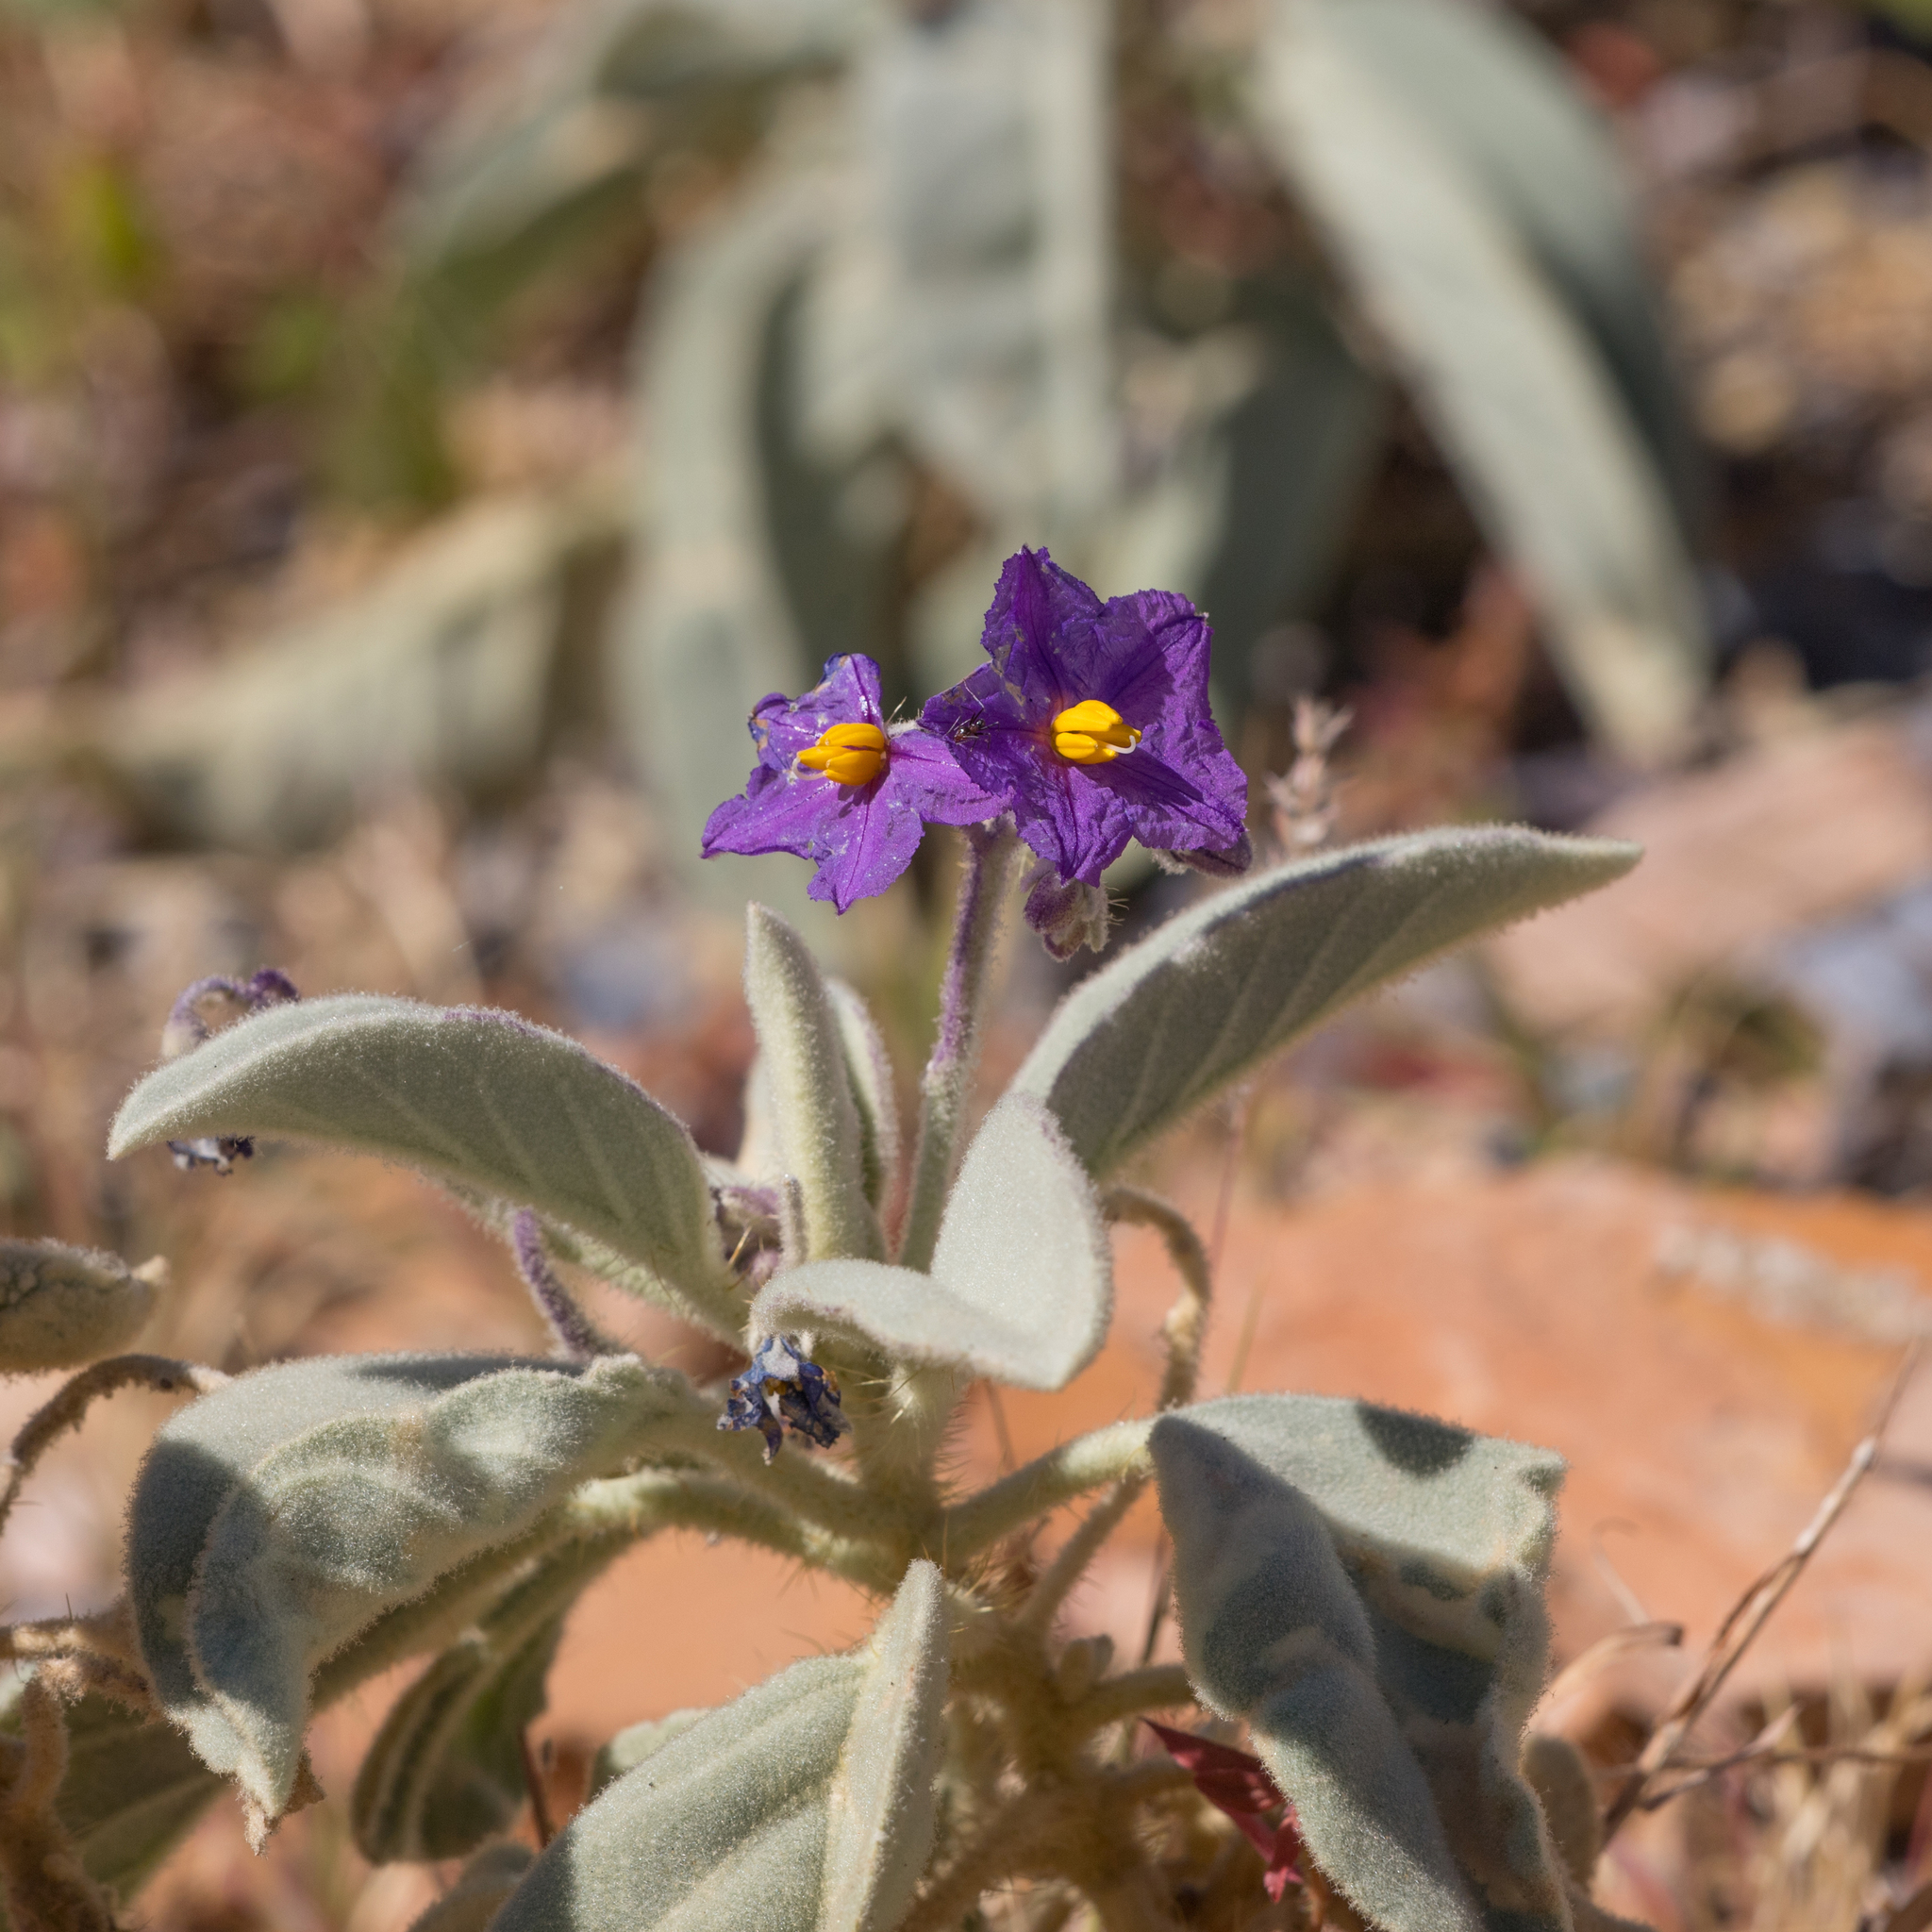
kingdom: Plantae
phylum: Tracheophyta
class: Magnoliopsida
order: Solanales
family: Solanaceae
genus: Solanum
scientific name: Solanum quadriloculatum
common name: Wild tomato
